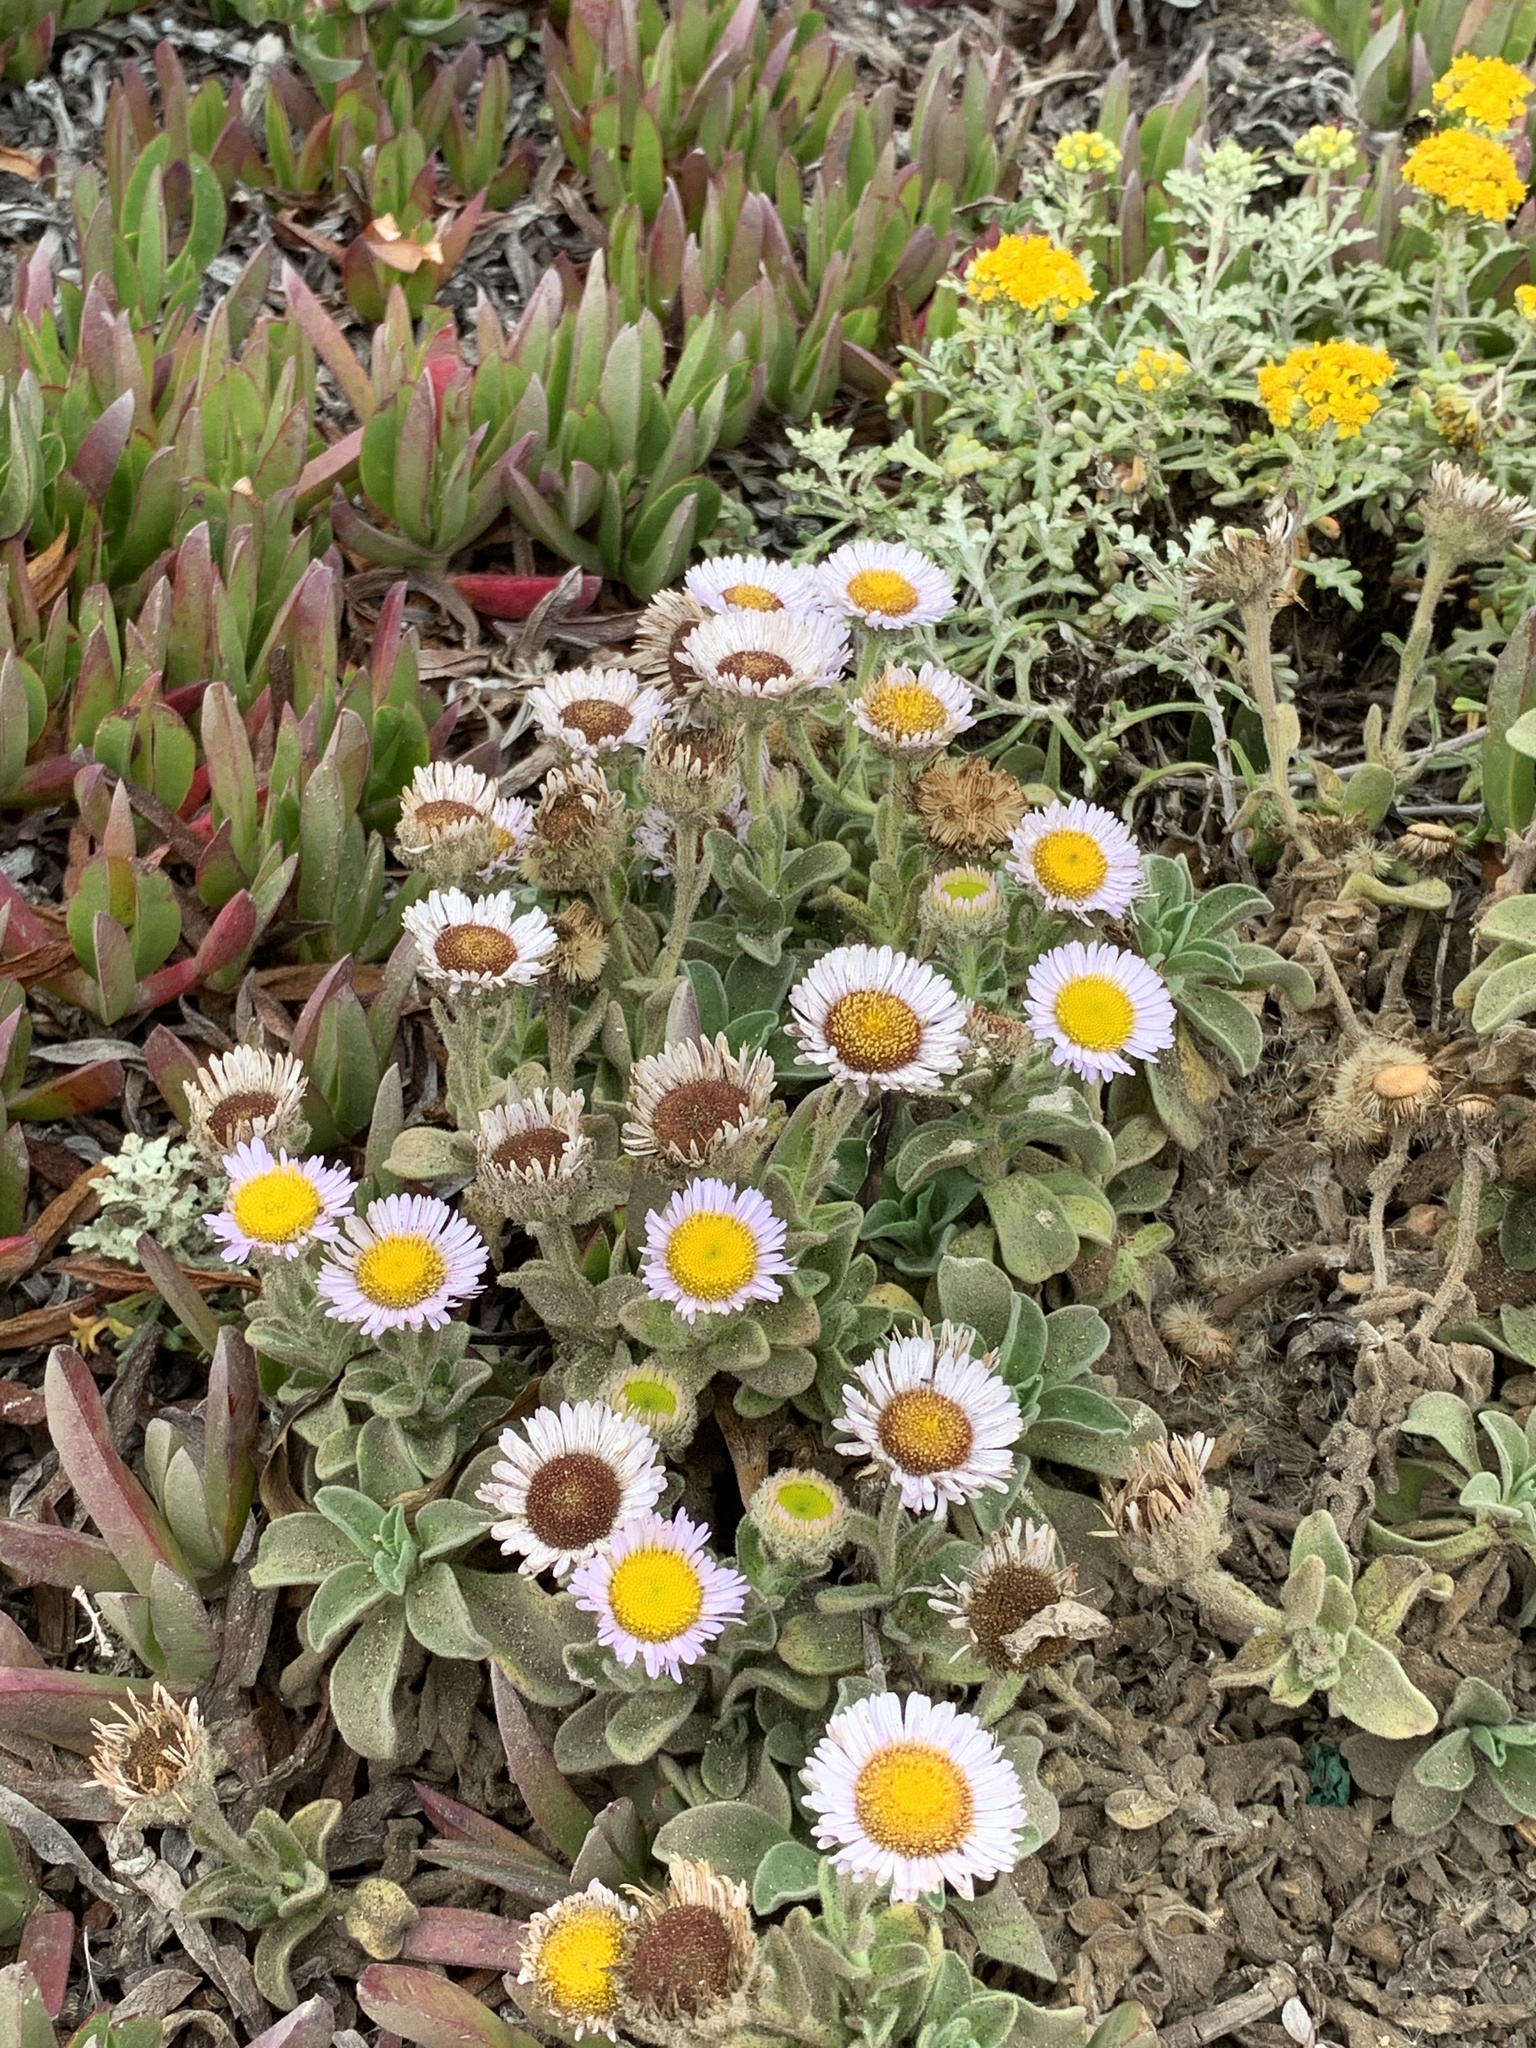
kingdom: Plantae
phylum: Tracheophyta
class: Magnoliopsida
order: Asterales
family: Asteraceae
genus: Erigeron
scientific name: Erigeron glaucus
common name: Seaside daisy
